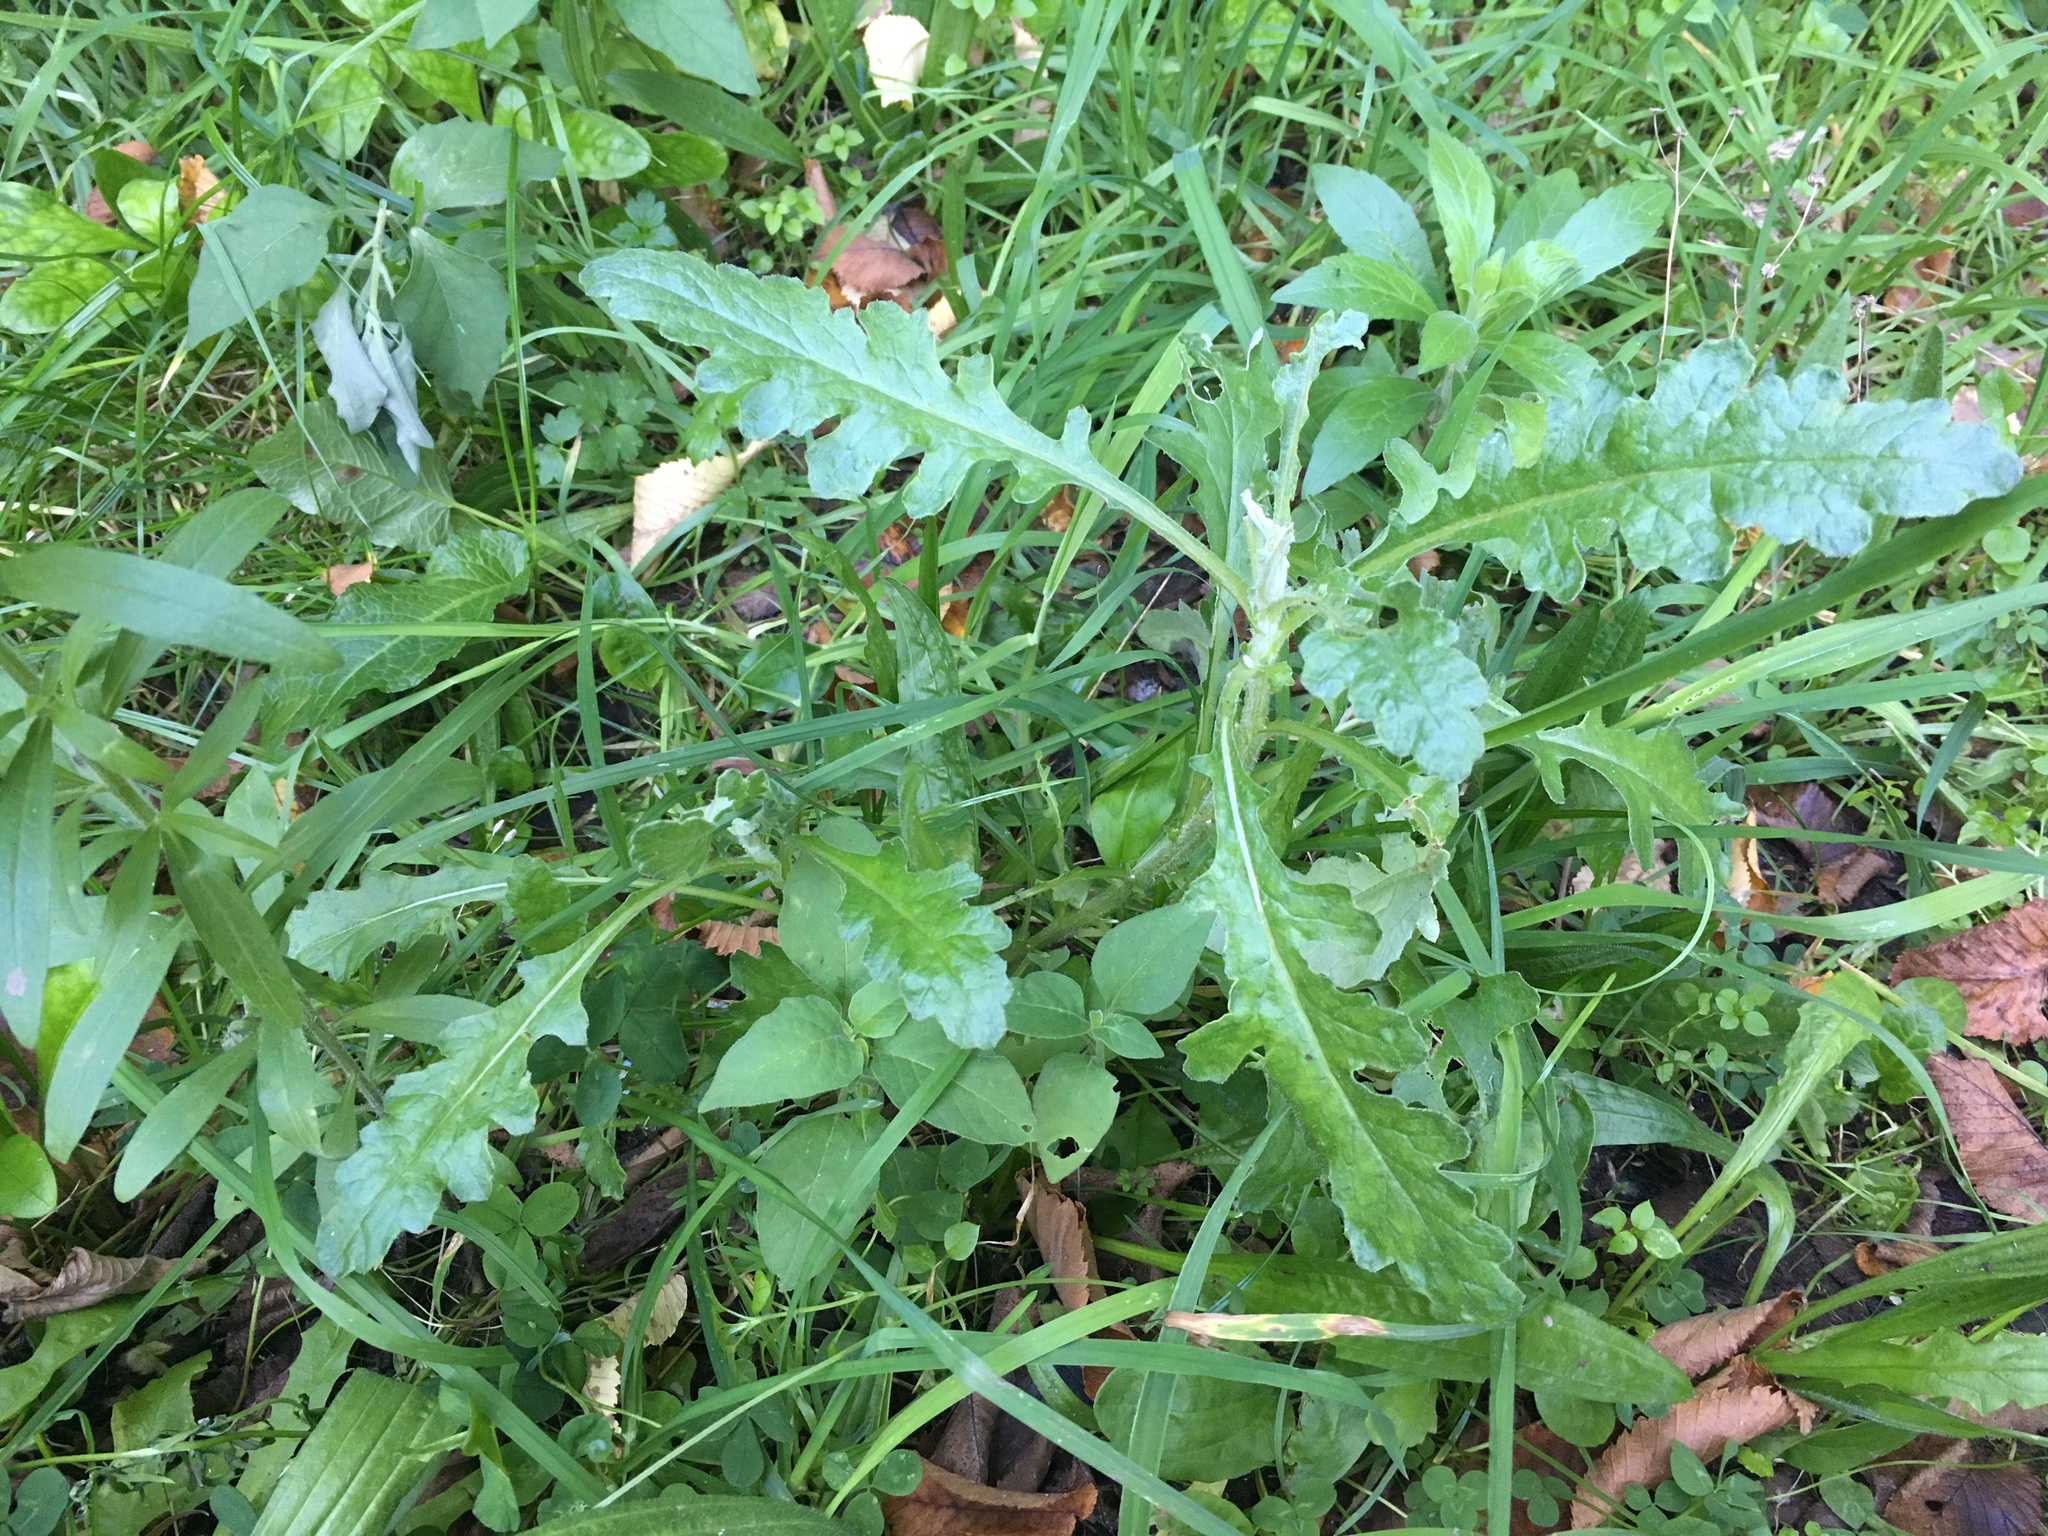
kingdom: Plantae
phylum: Tracheophyta
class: Magnoliopsida
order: Asterales
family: Asteraceae
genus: Senecio
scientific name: Senecio glomeratus
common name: Cutleaf burnweed
